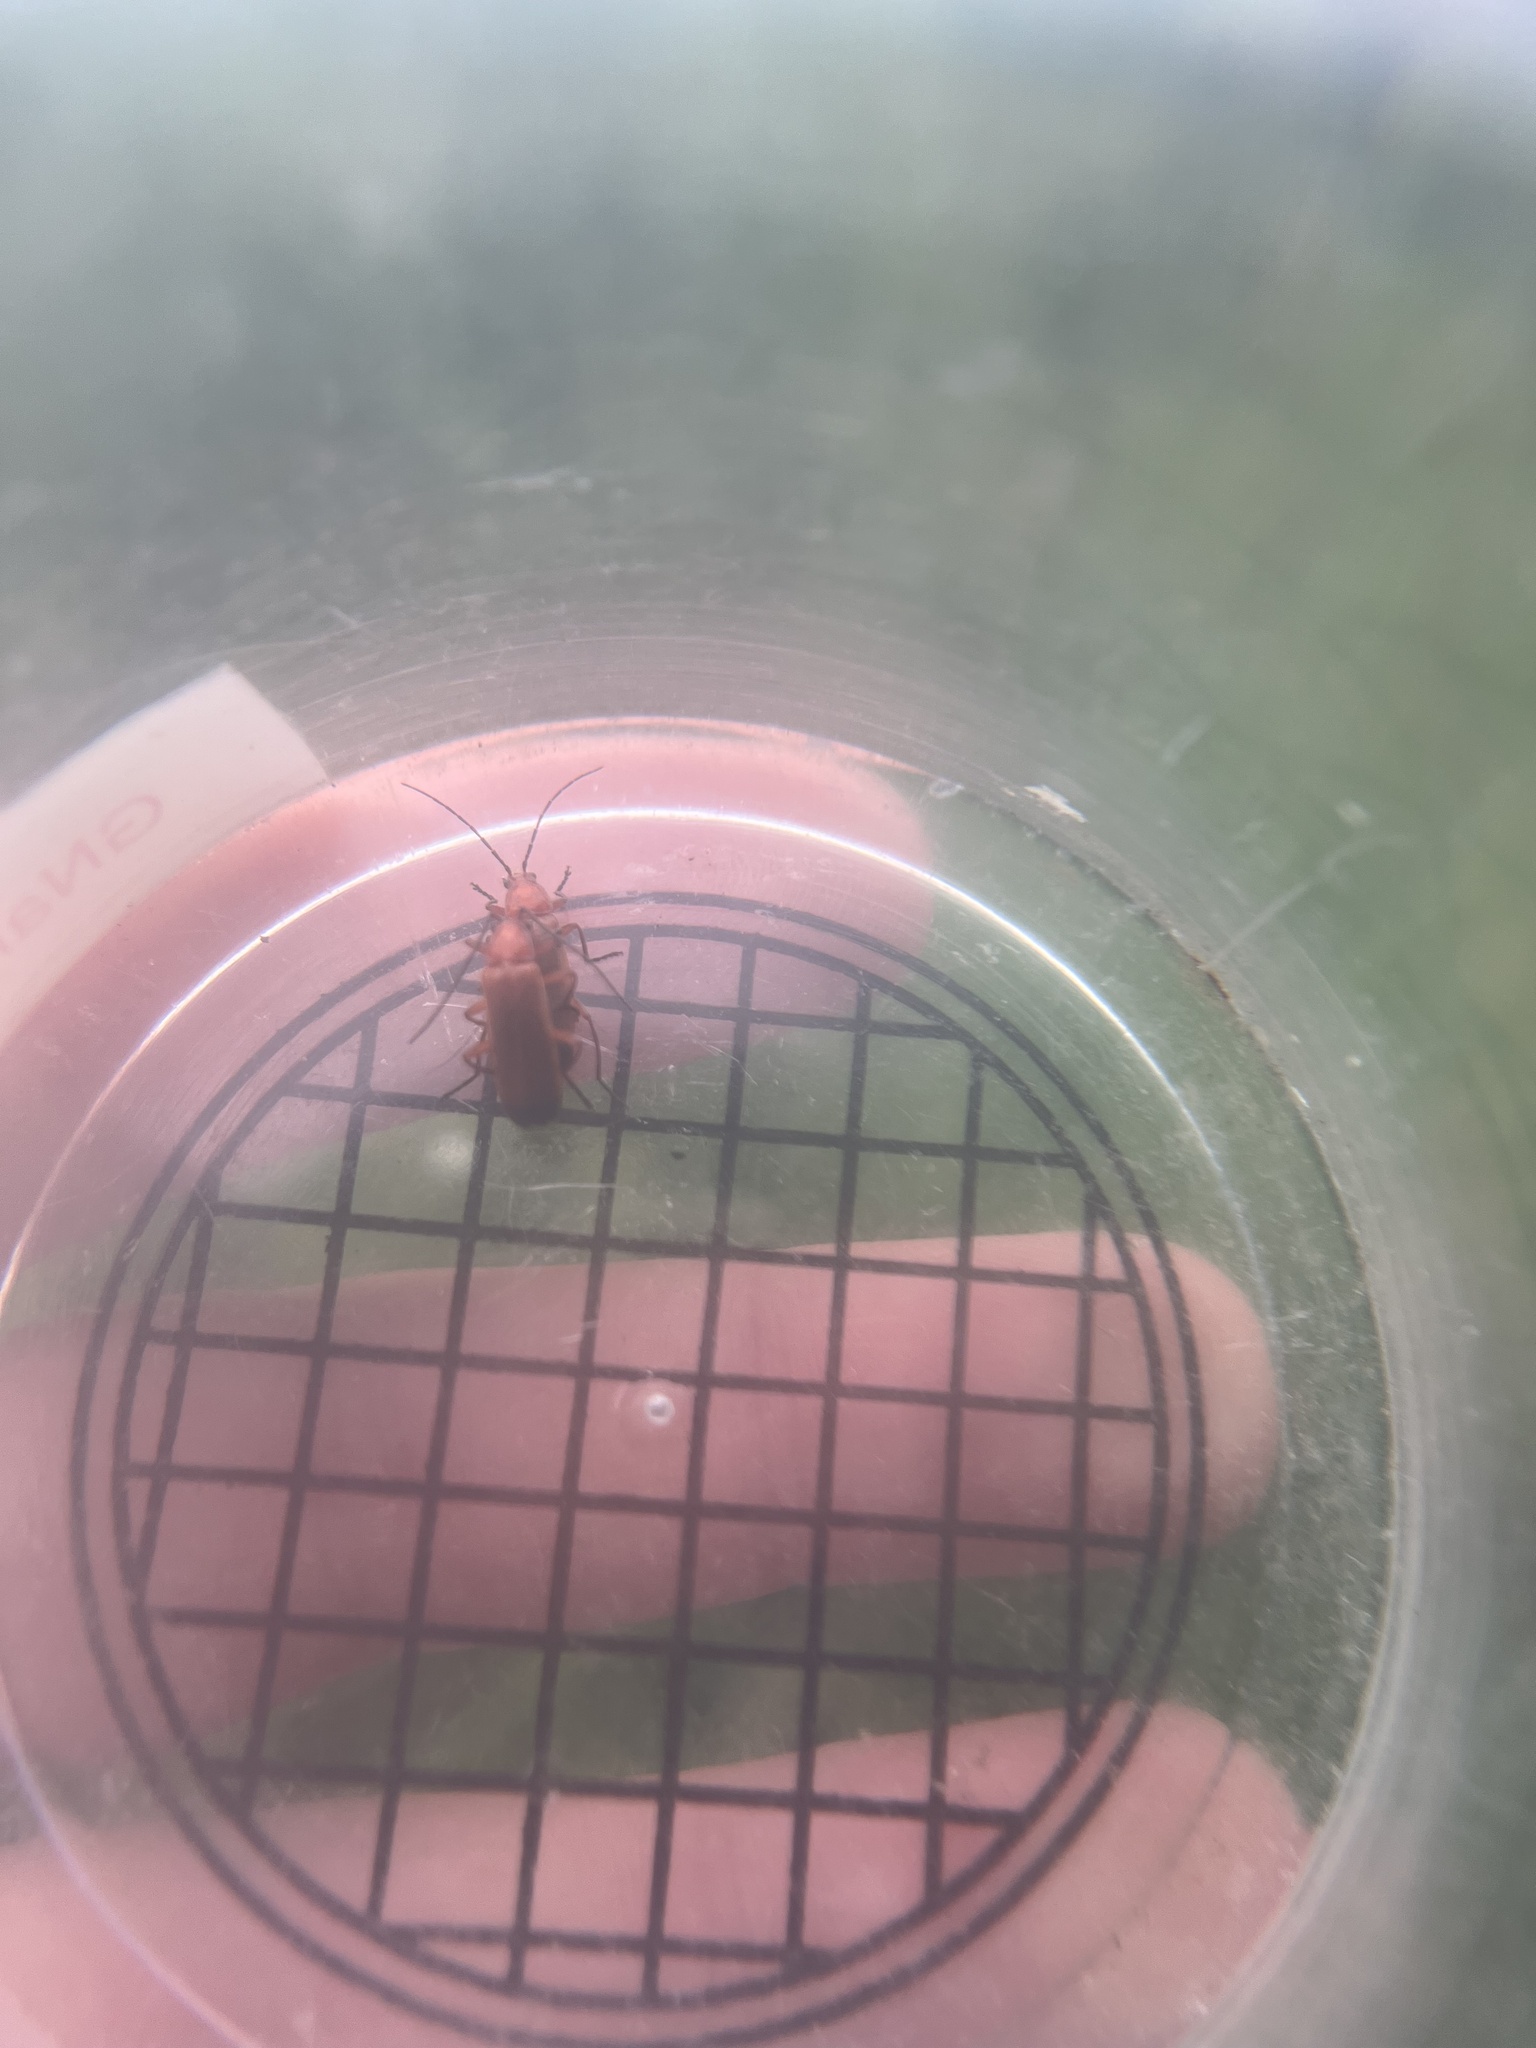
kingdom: Animalia
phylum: Arthropoda
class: Insecta
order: Coleoptera
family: Cantharidae
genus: Rhagonycha
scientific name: Rhagonycha fulva
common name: Common red soldier beetle
